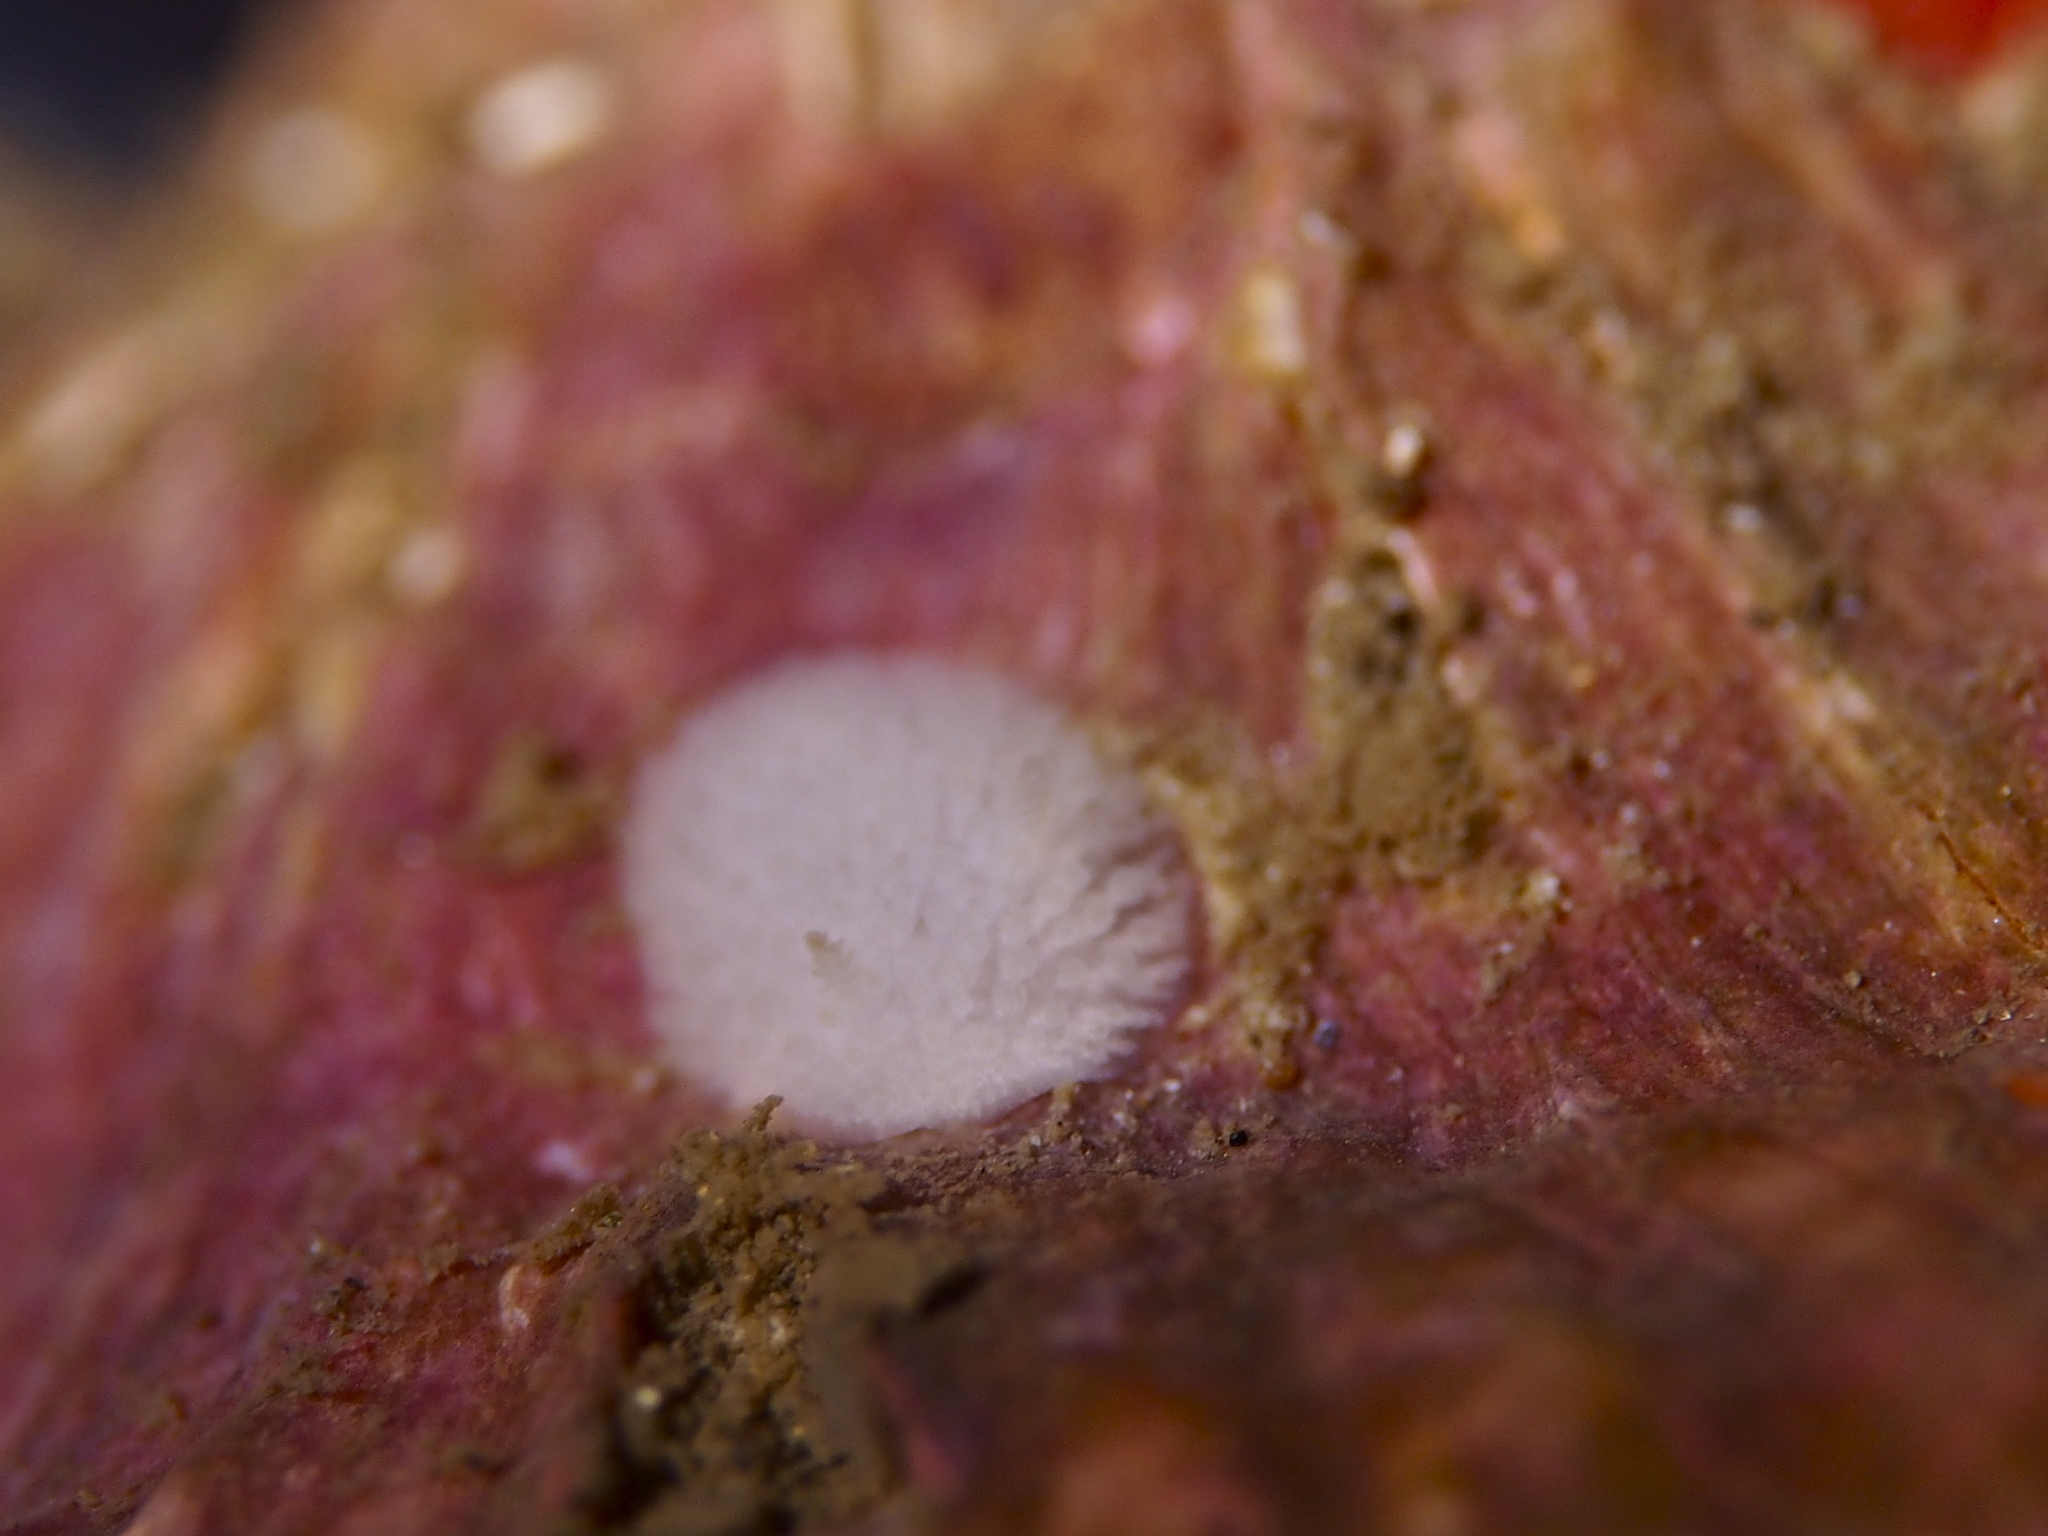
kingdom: Animalia
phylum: Mollusca
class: Gastropoda
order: Nudibranchia
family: Onchidorididae
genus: Onchidoris
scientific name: Onchidoris muricata
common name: Rough doris
